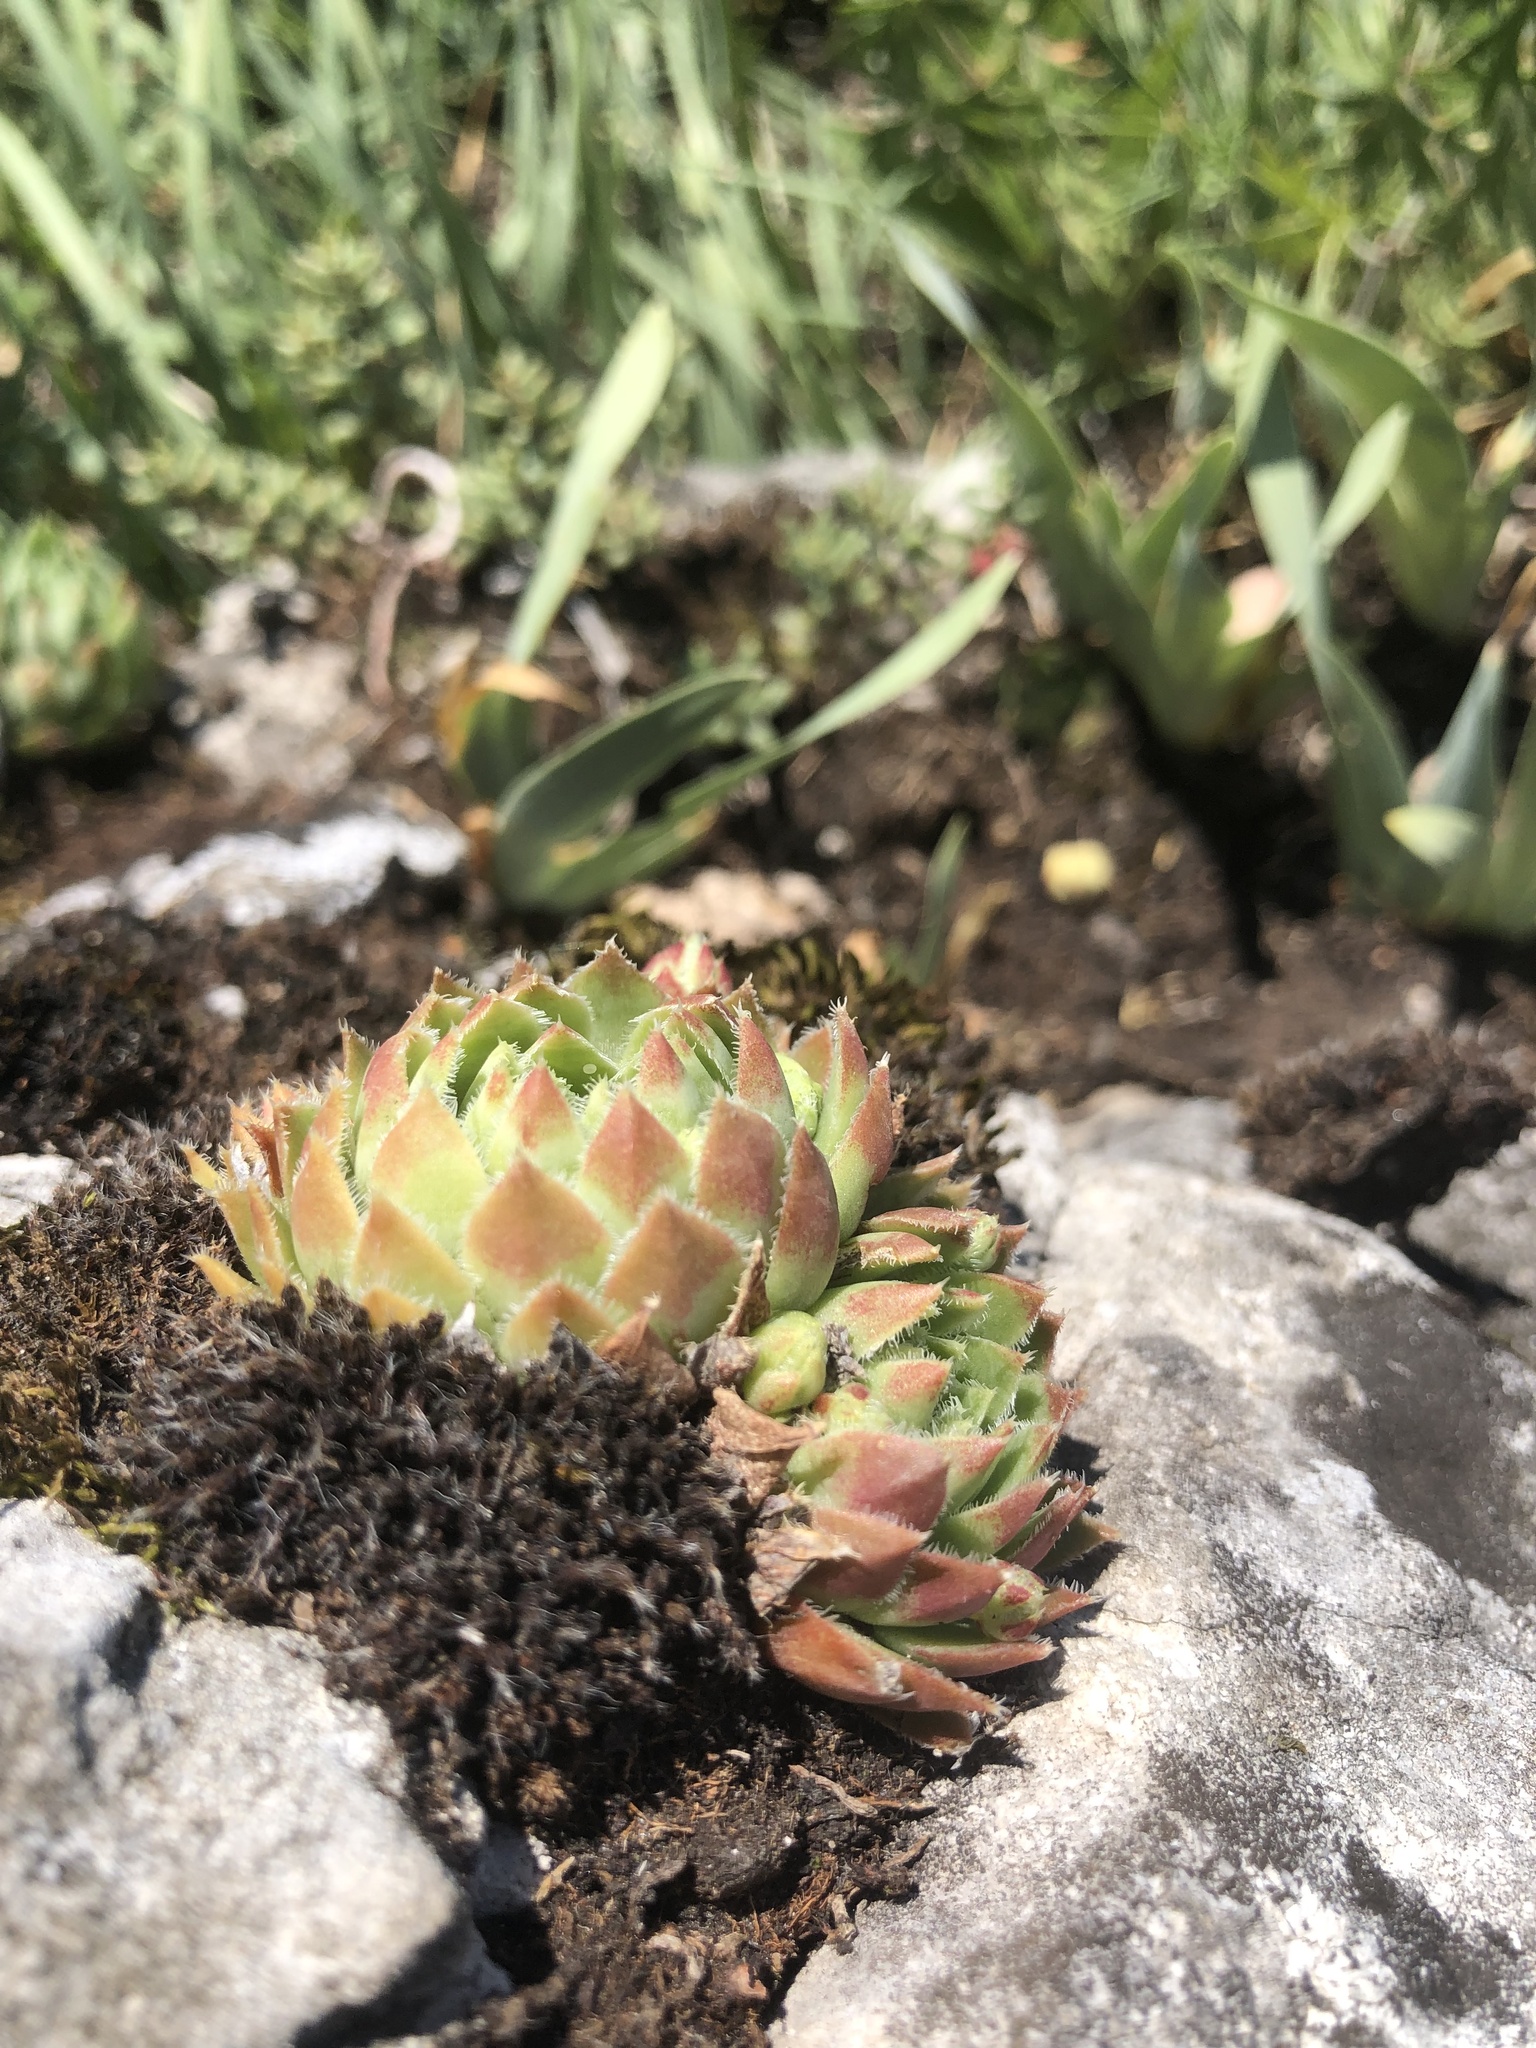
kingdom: Plantae
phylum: Tracheophyta
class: Magnoliopsida
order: Saxifragales
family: Crassulaceae
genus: Sempervivum
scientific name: Sempervivum globiferum
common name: Rolling hen-and-chicks
